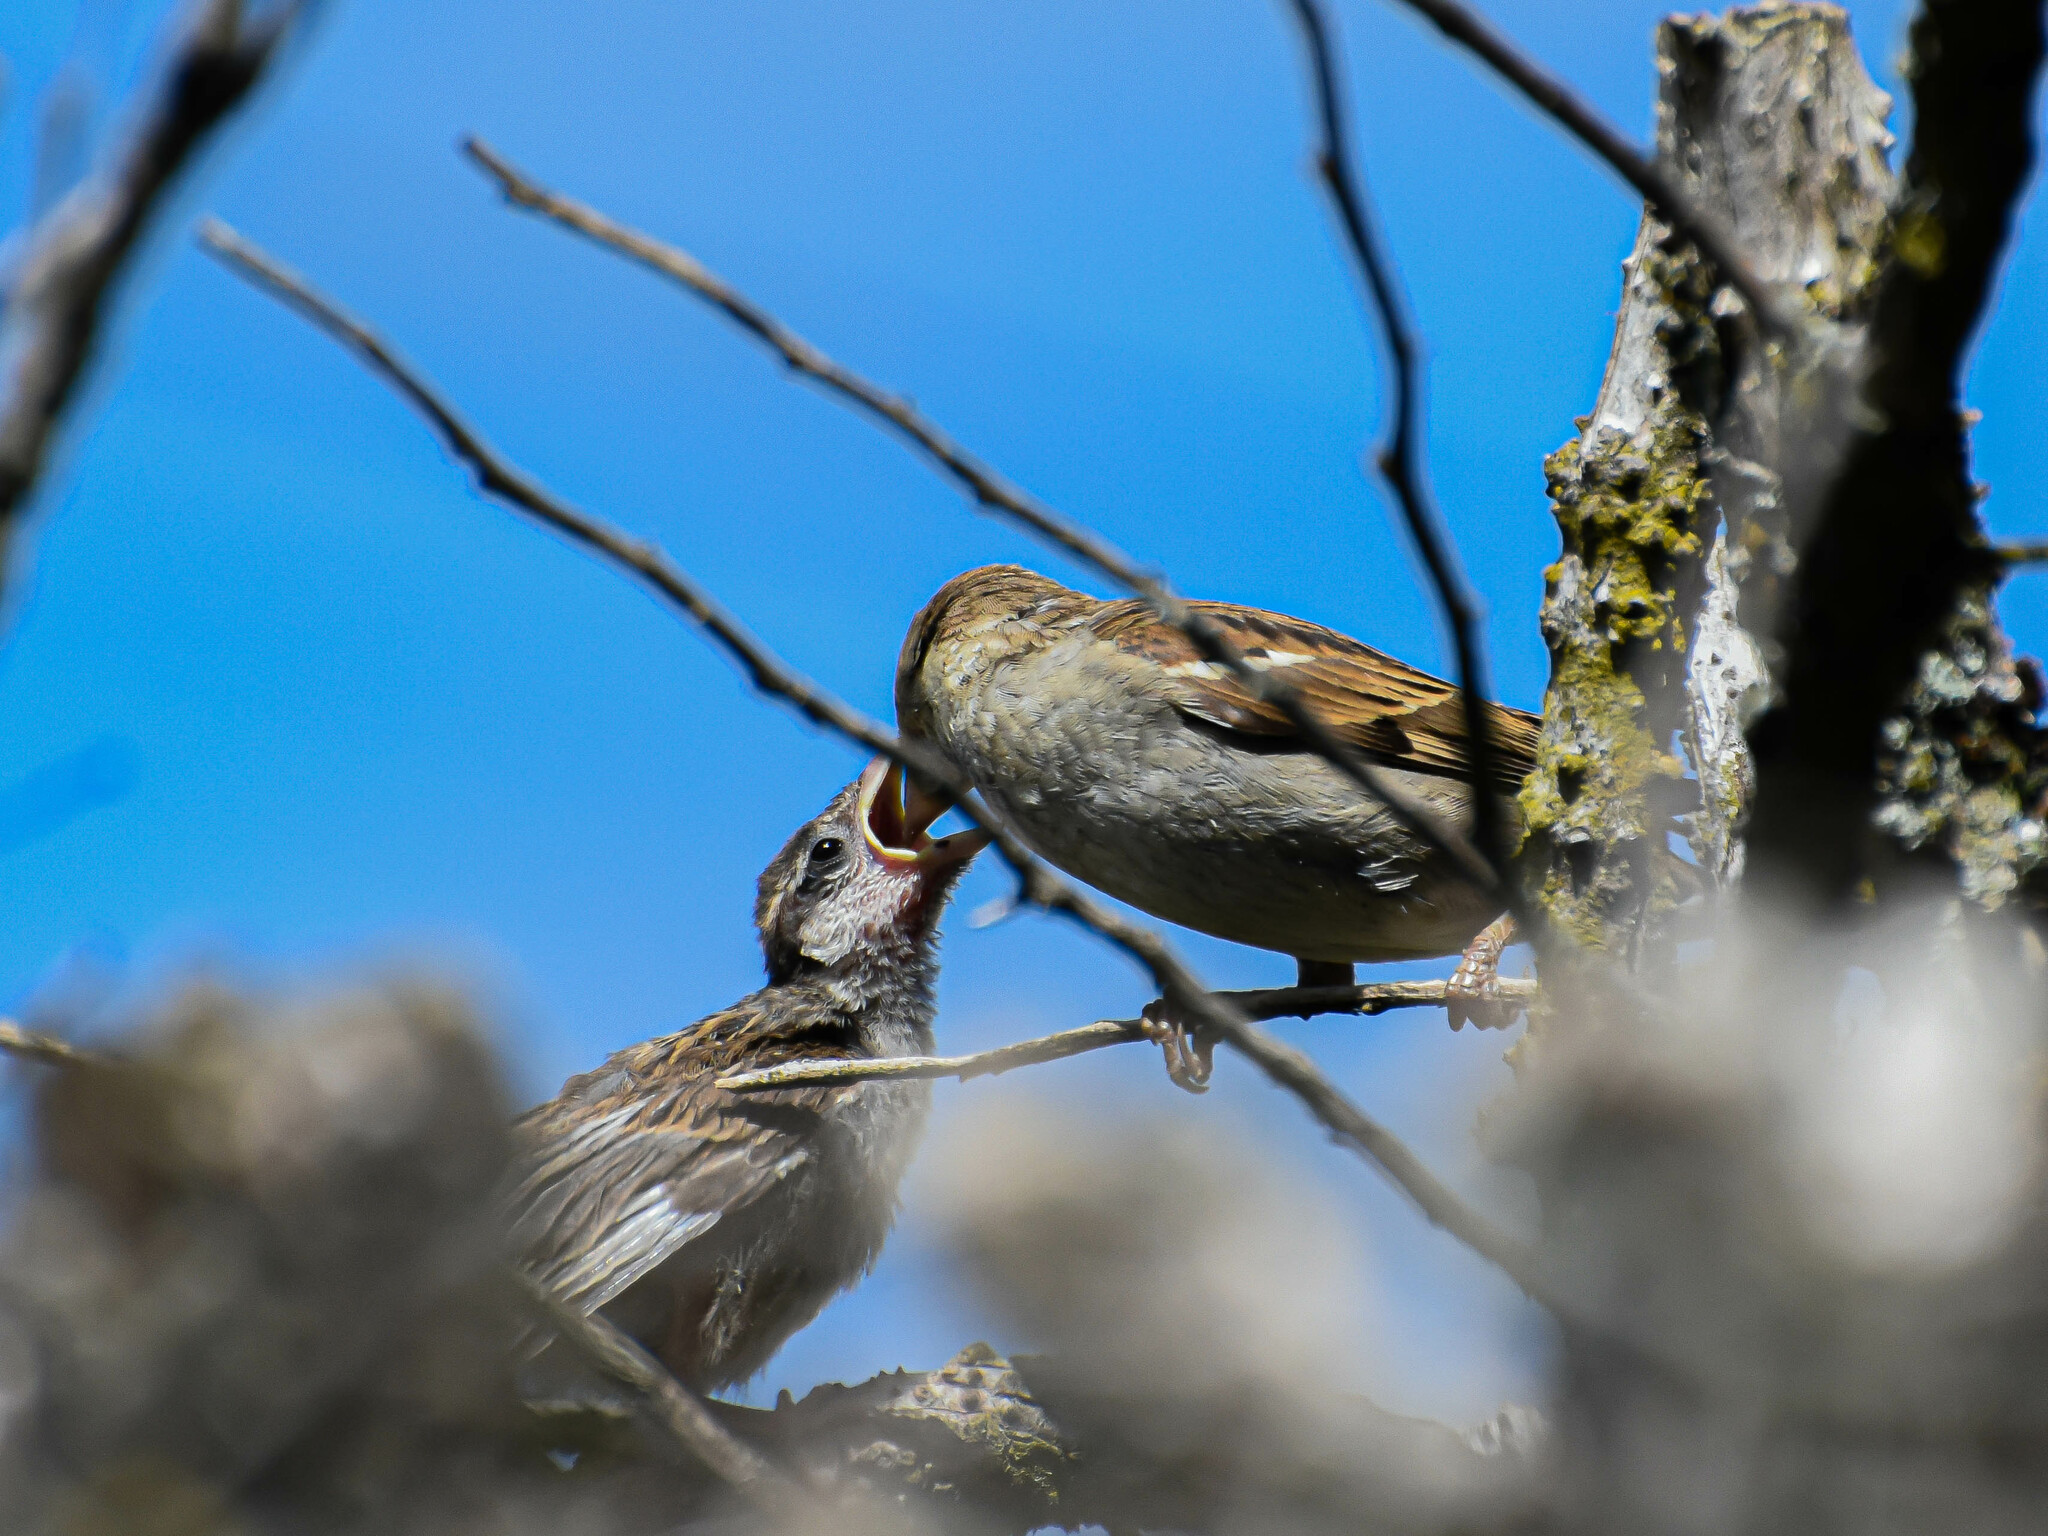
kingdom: Animalia
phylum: Chordata
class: Aves
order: Passeriformes
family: Passeridae
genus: Passer
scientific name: Passer domesticus
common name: House sparrow
